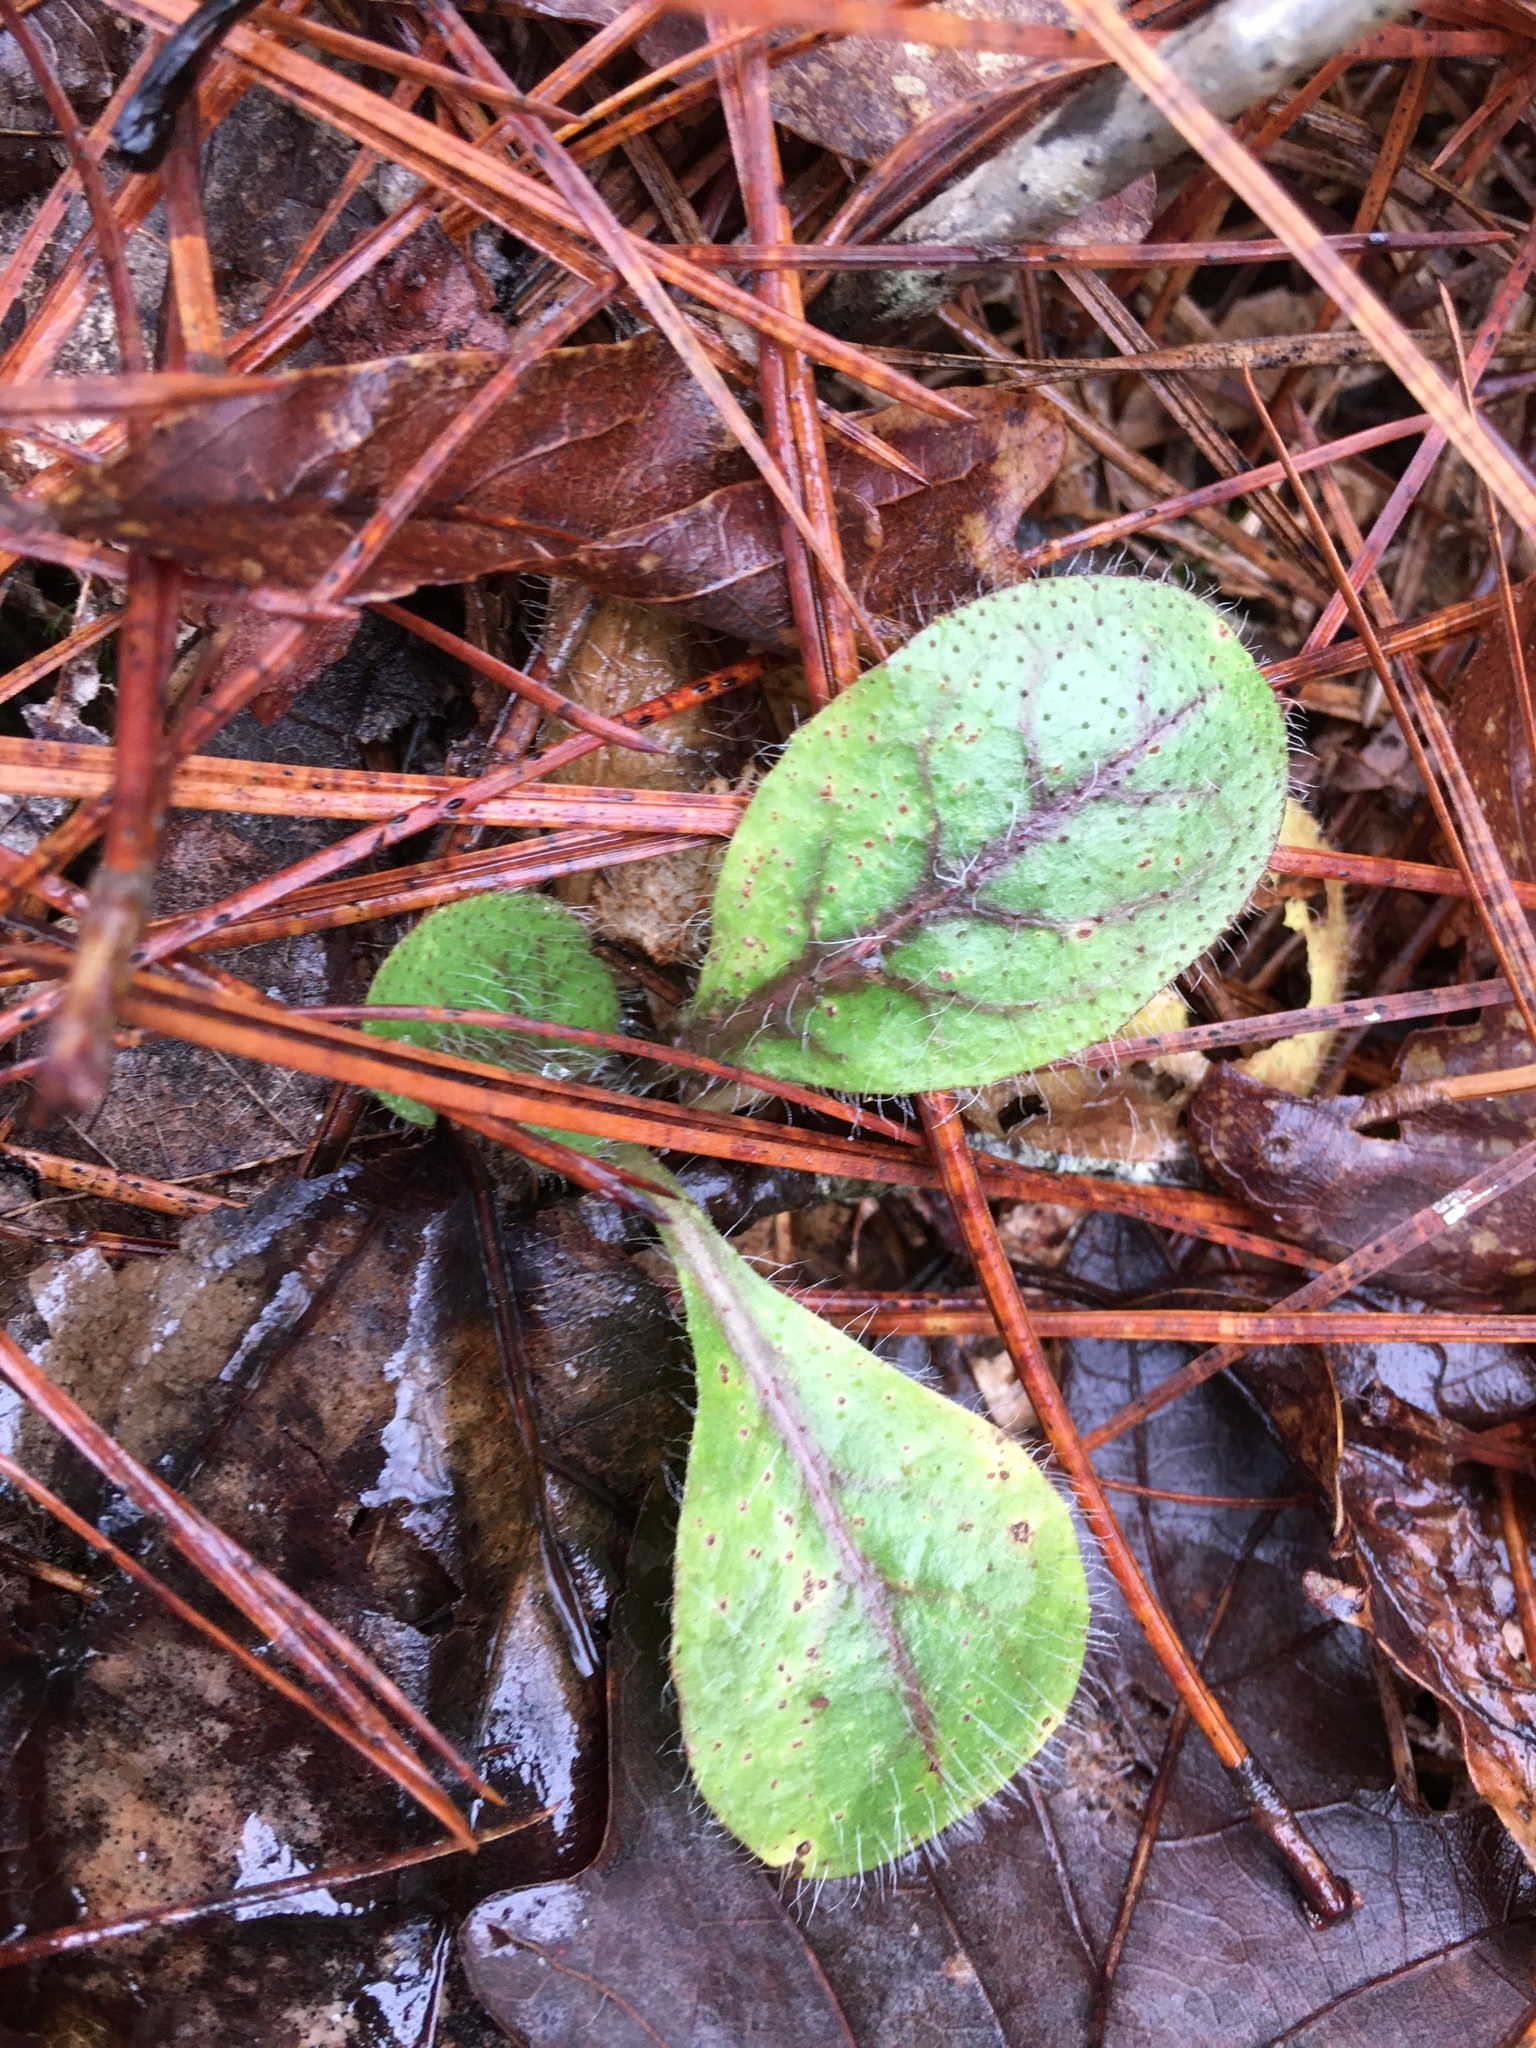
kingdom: Plantae
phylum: Tracheophyta
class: Magnoliopsida
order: Asterales
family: Asteraceae
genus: Hieracium
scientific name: Hieracium venosum
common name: Rattlesnake hawkweed
